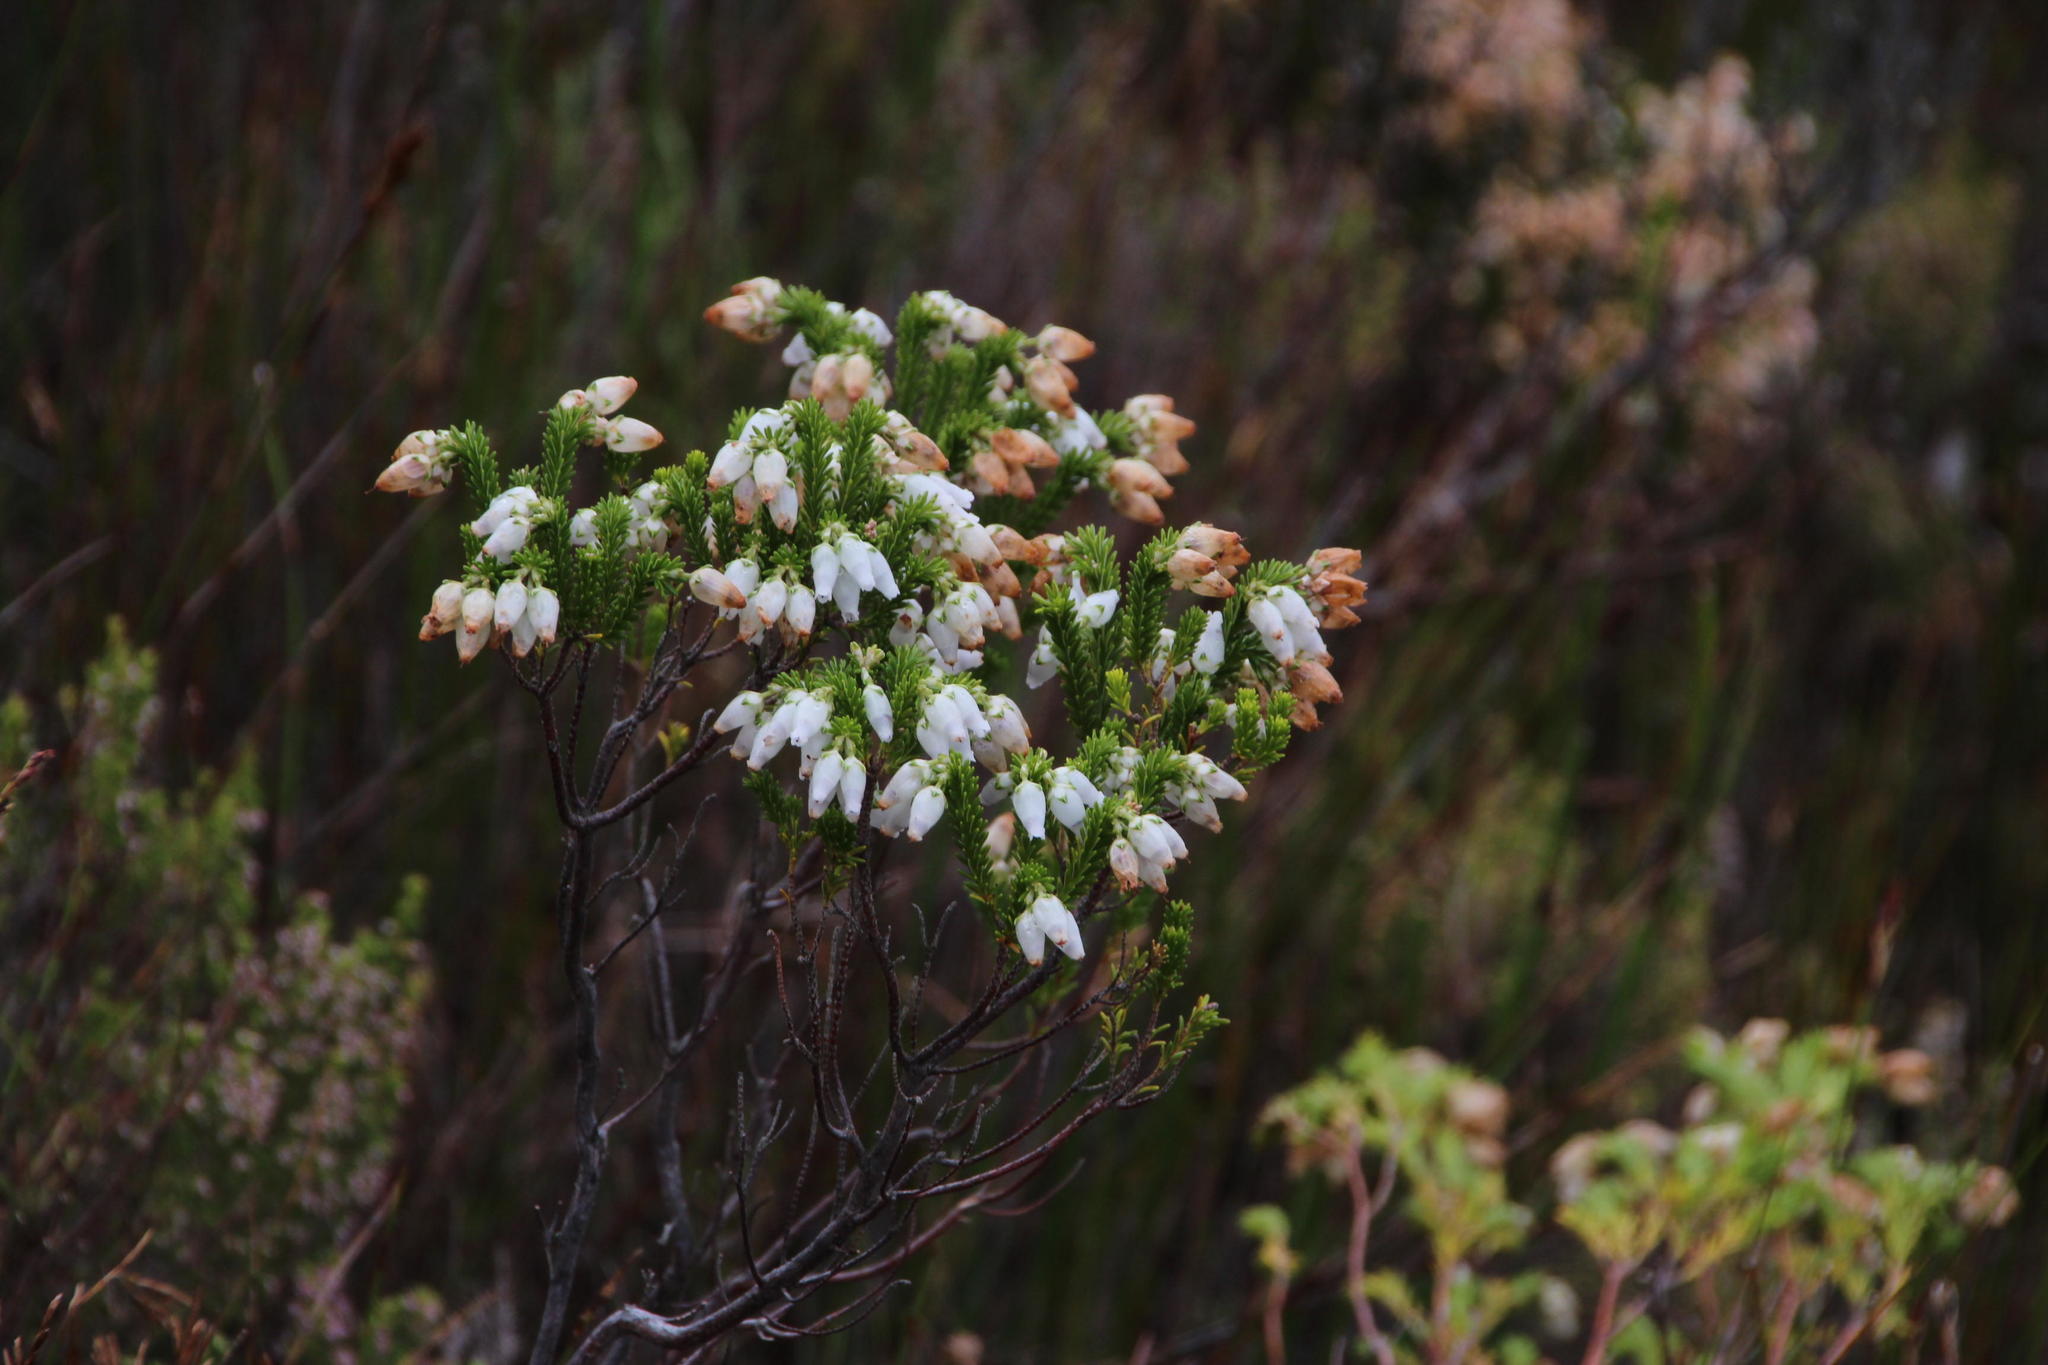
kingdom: Plantae
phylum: Tracheophyta
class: Magnoliopsida
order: Ericales
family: Ericaceae
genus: Erica
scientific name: Erica physodes
